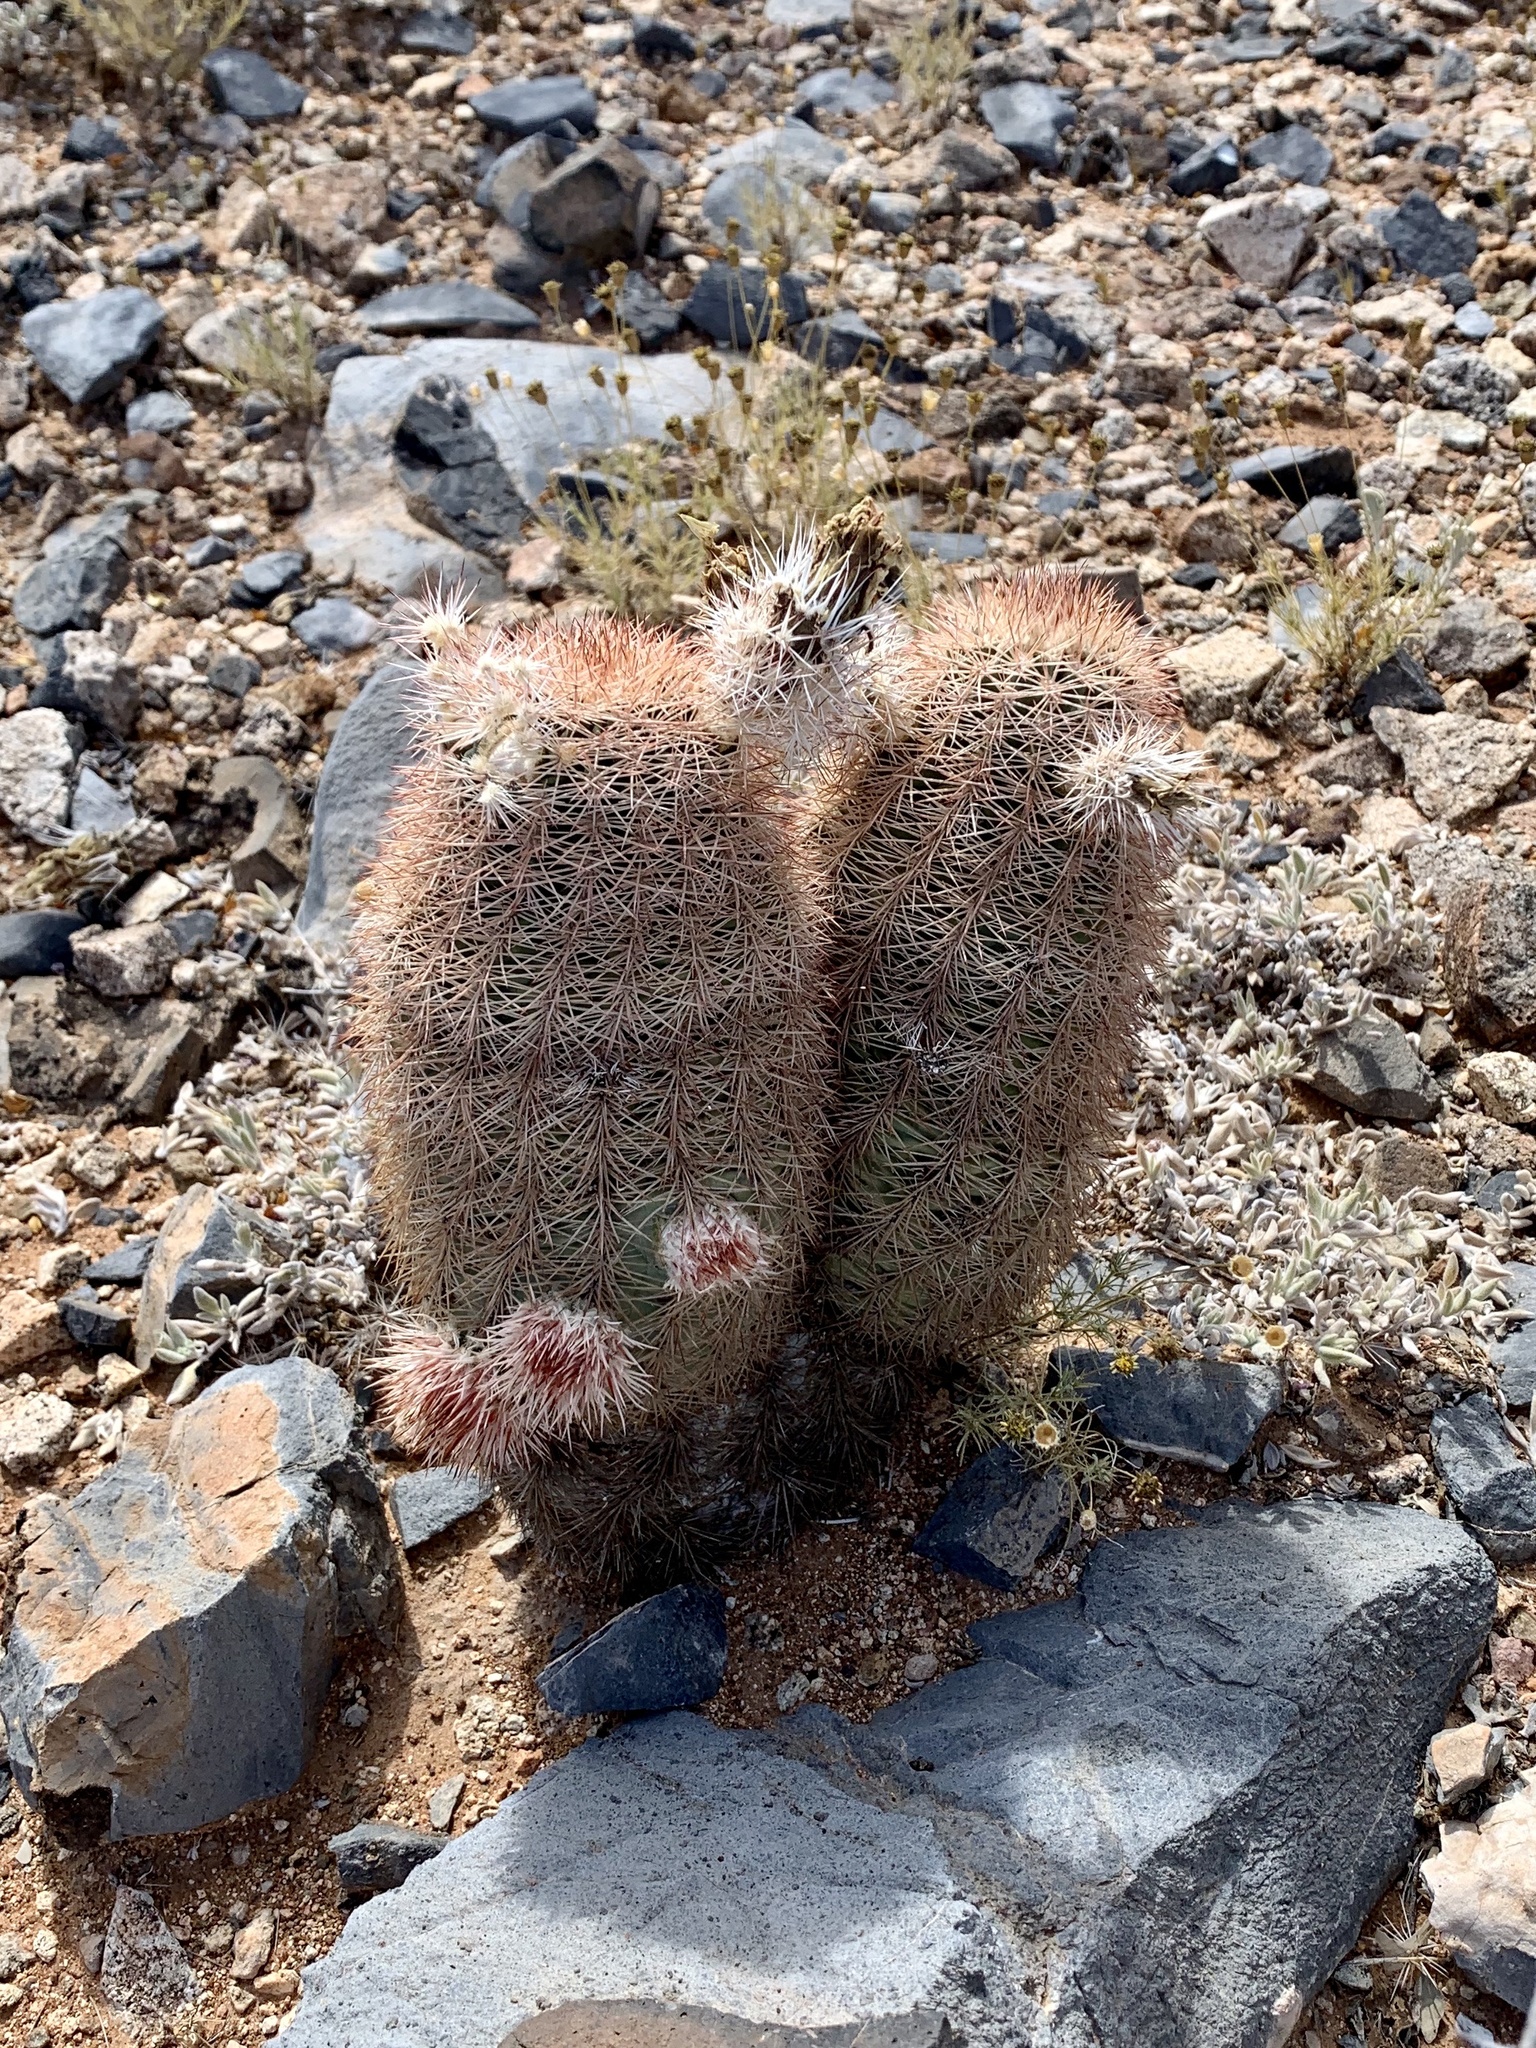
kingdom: Plantae
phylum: Tracheophyta
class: Magnoliopsida
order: Caryophyllales
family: Cactaceae
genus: Echinocereus
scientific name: Echinocereus dasyacanthus
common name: Spiny hedgehog cactus
